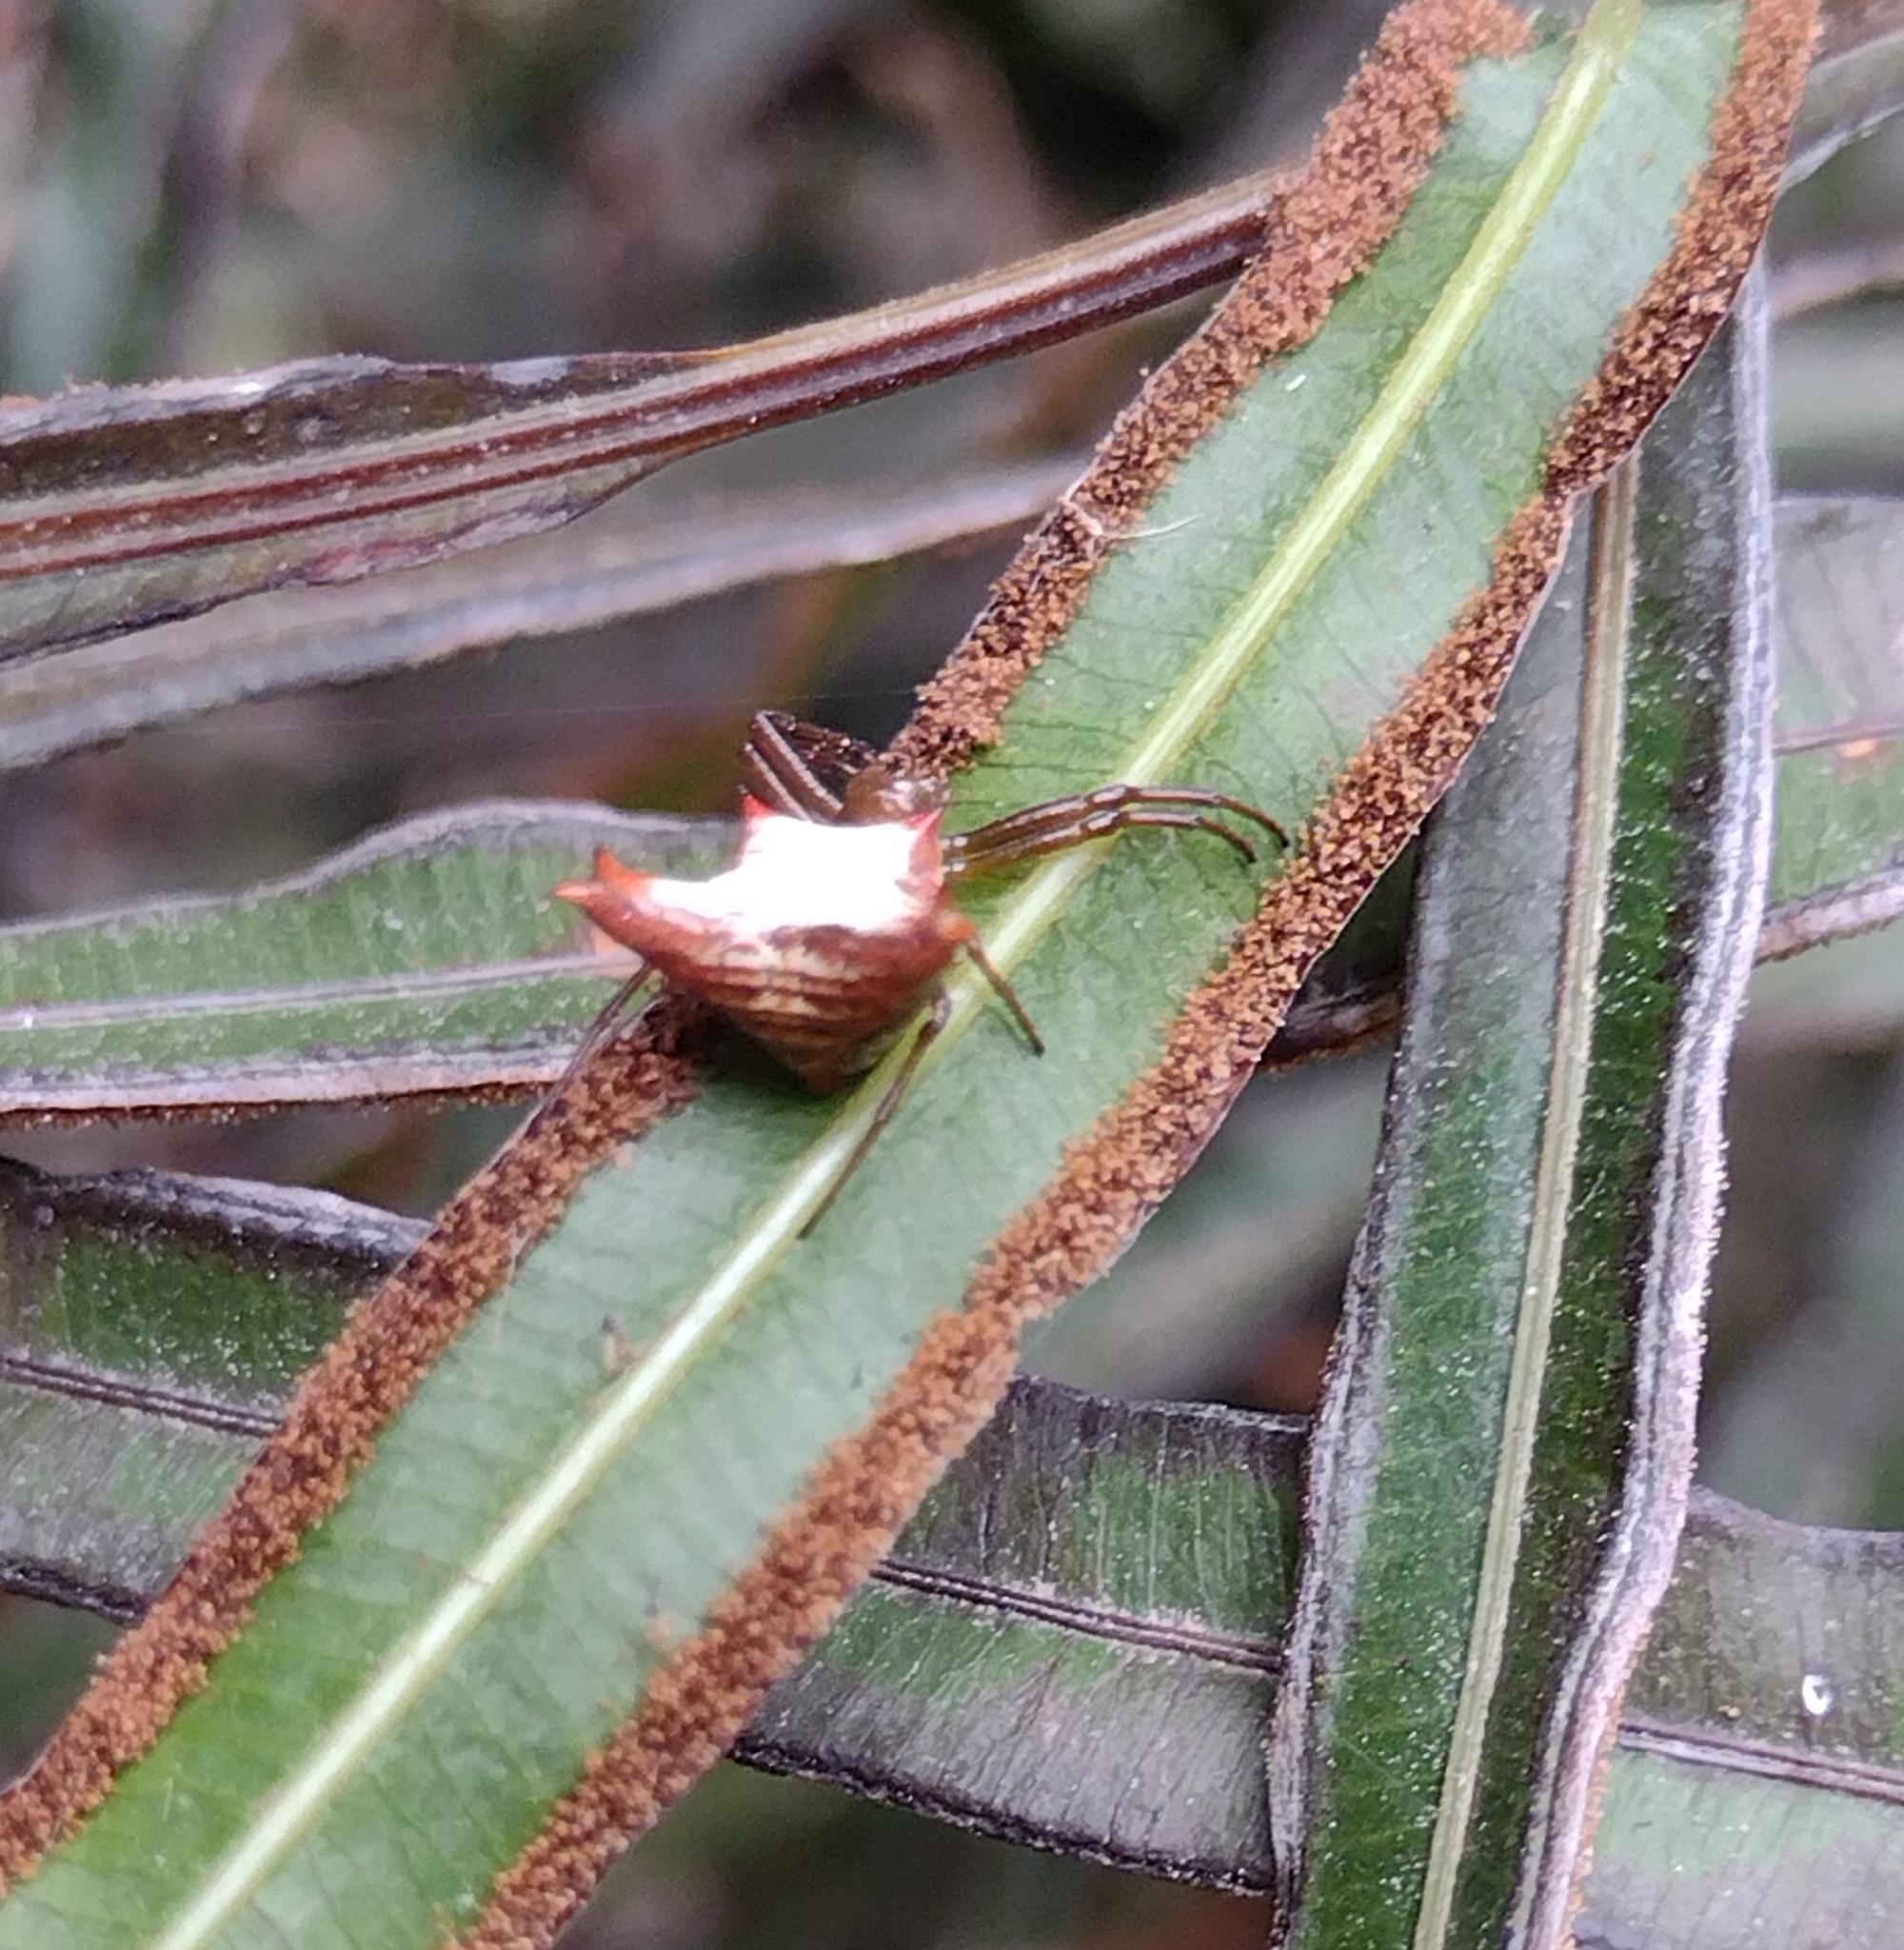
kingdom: Animalia
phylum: Arthropoda
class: Arachnida
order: Araneae
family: Araneidae
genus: Micrathena
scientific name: Micrathena crassa
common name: Orb weavers
